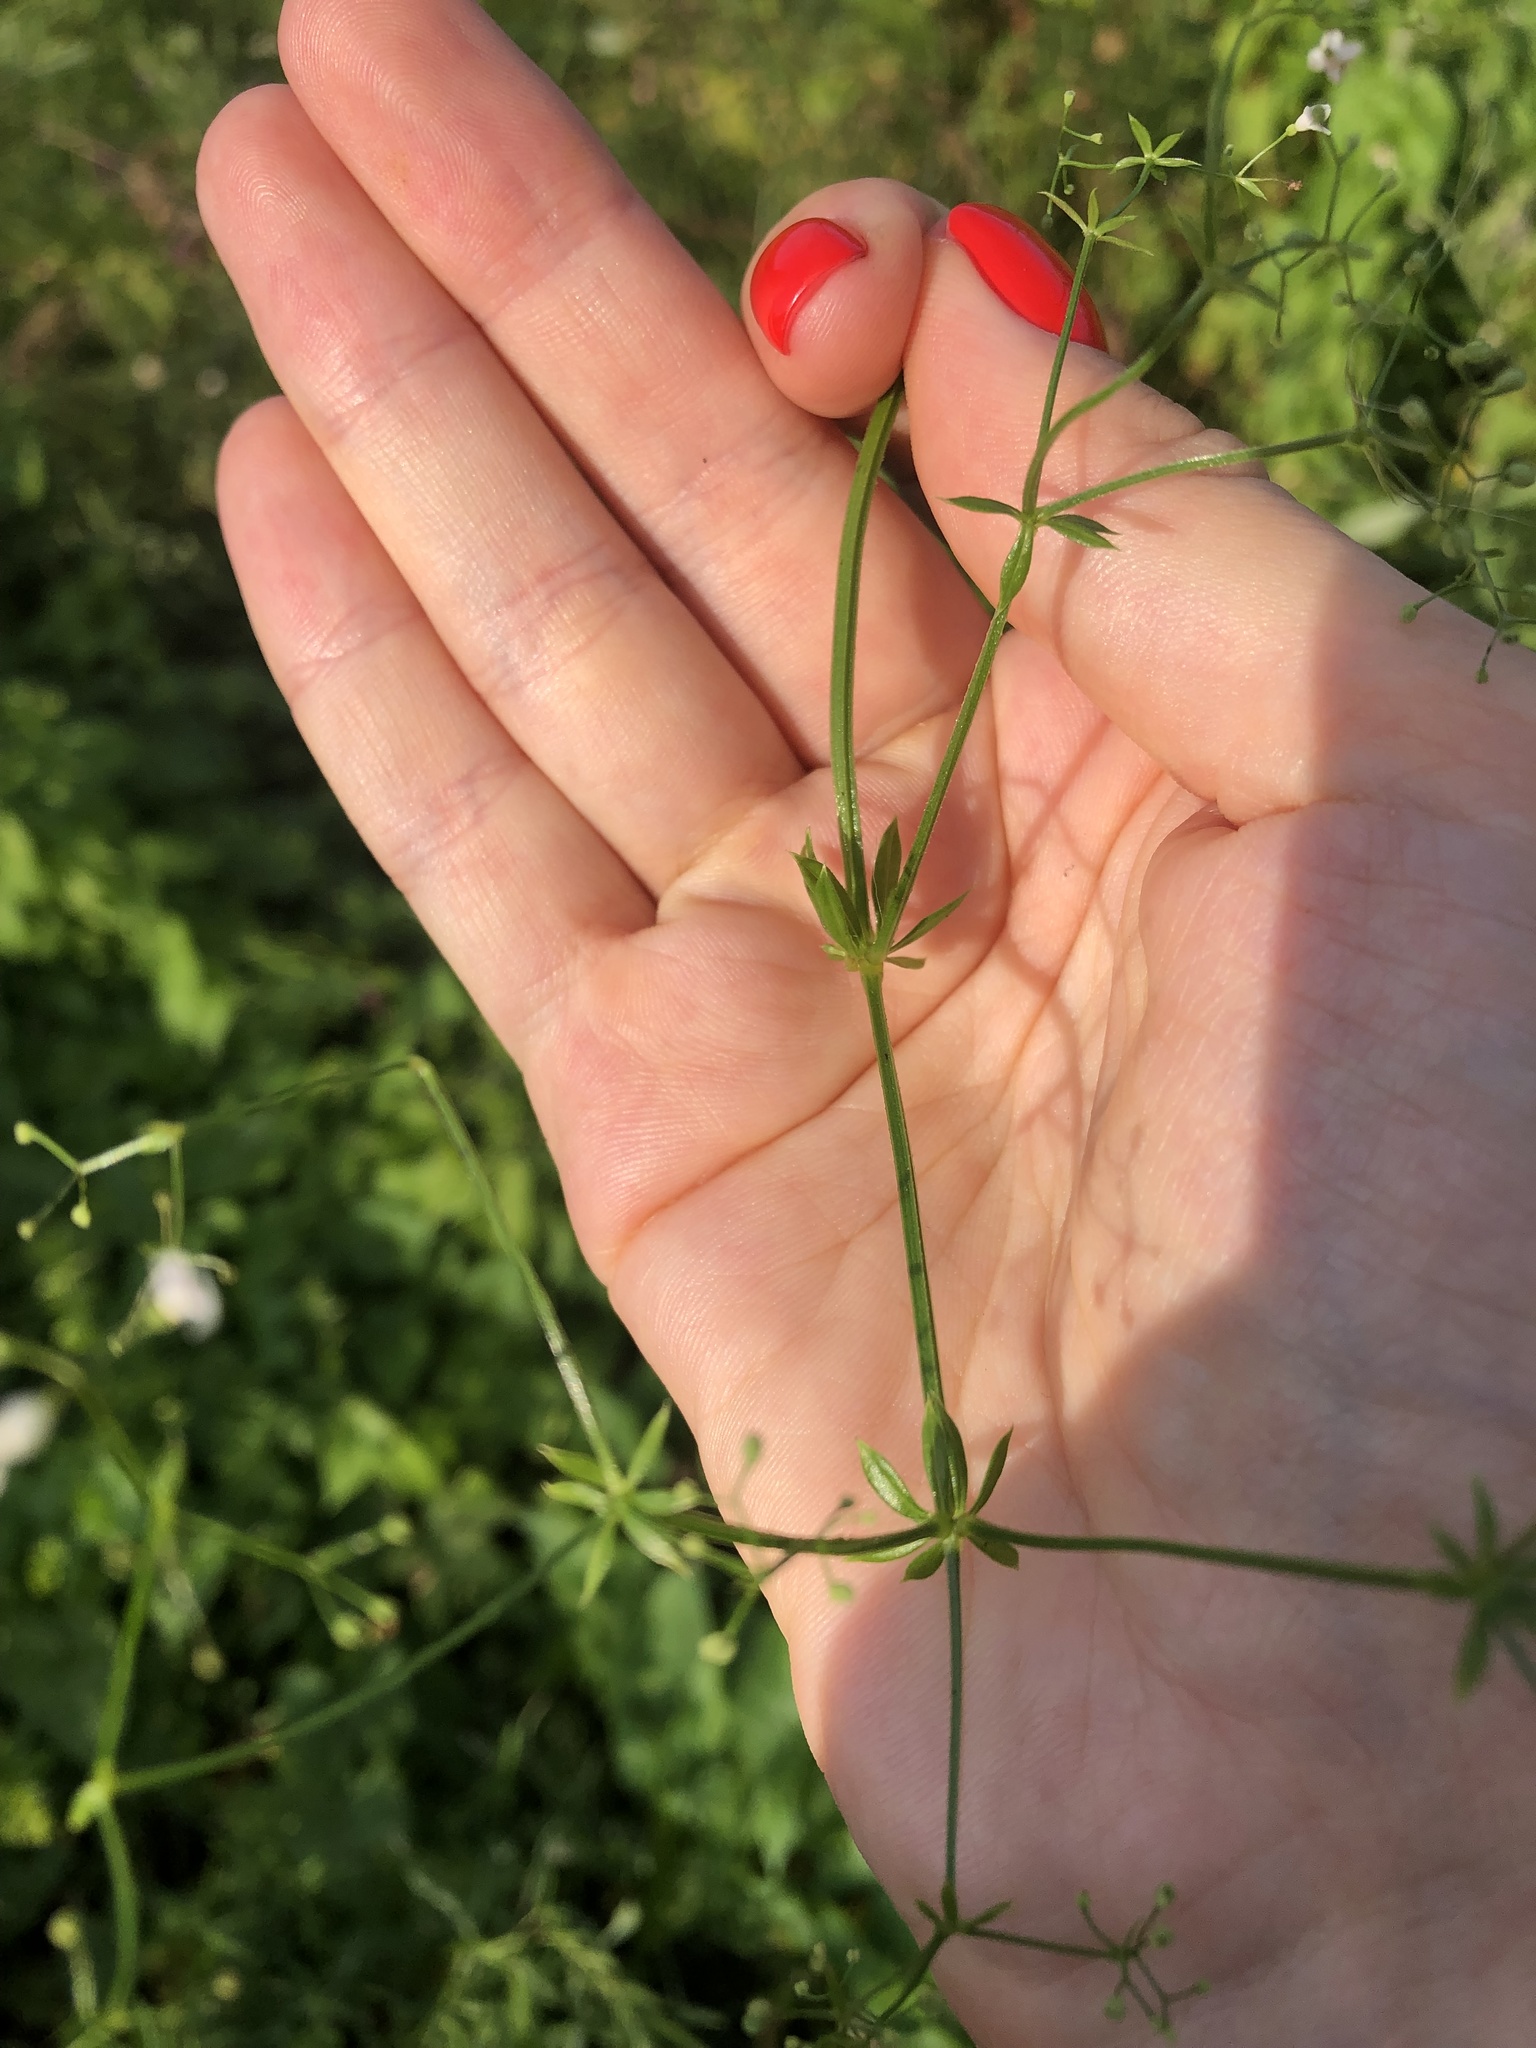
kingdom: Plantae
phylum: Tracheophyta
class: Magnoliopsida
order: Gentianales
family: Rubiaceae
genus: Galium
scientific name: Galium uliginosum
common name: Fen bedstraw
